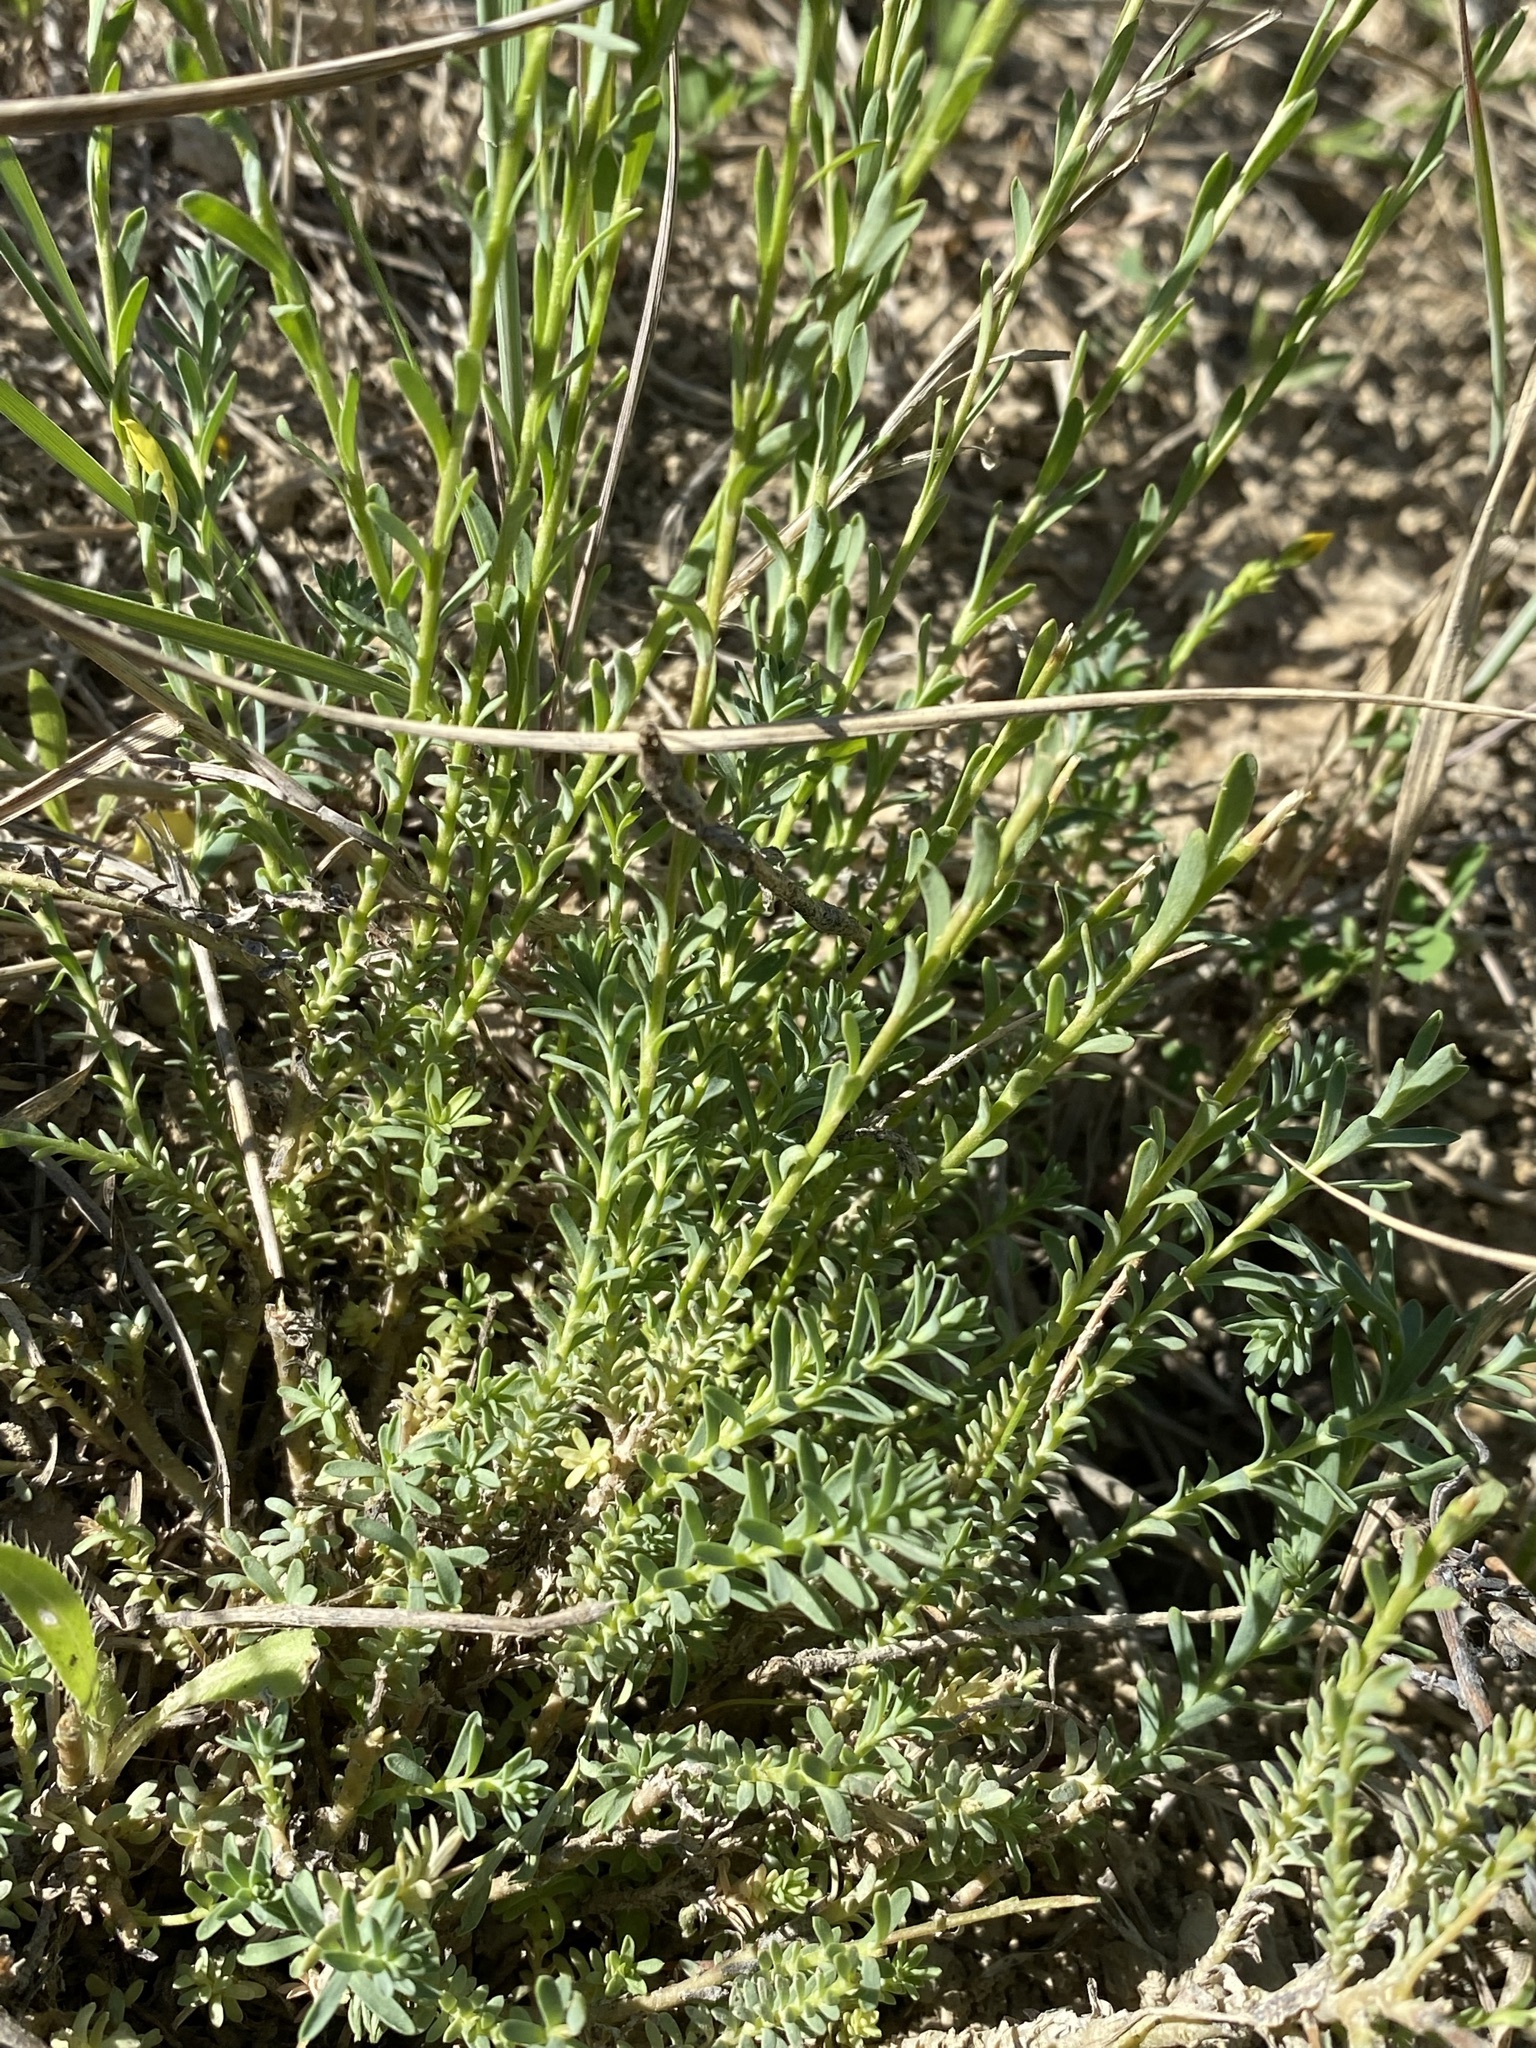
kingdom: Plantae
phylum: Tracheophyta
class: Magnoliopsida
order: Malpighiales
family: Linaceae
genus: Linum
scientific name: Linum kingii
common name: King's yellow flax
